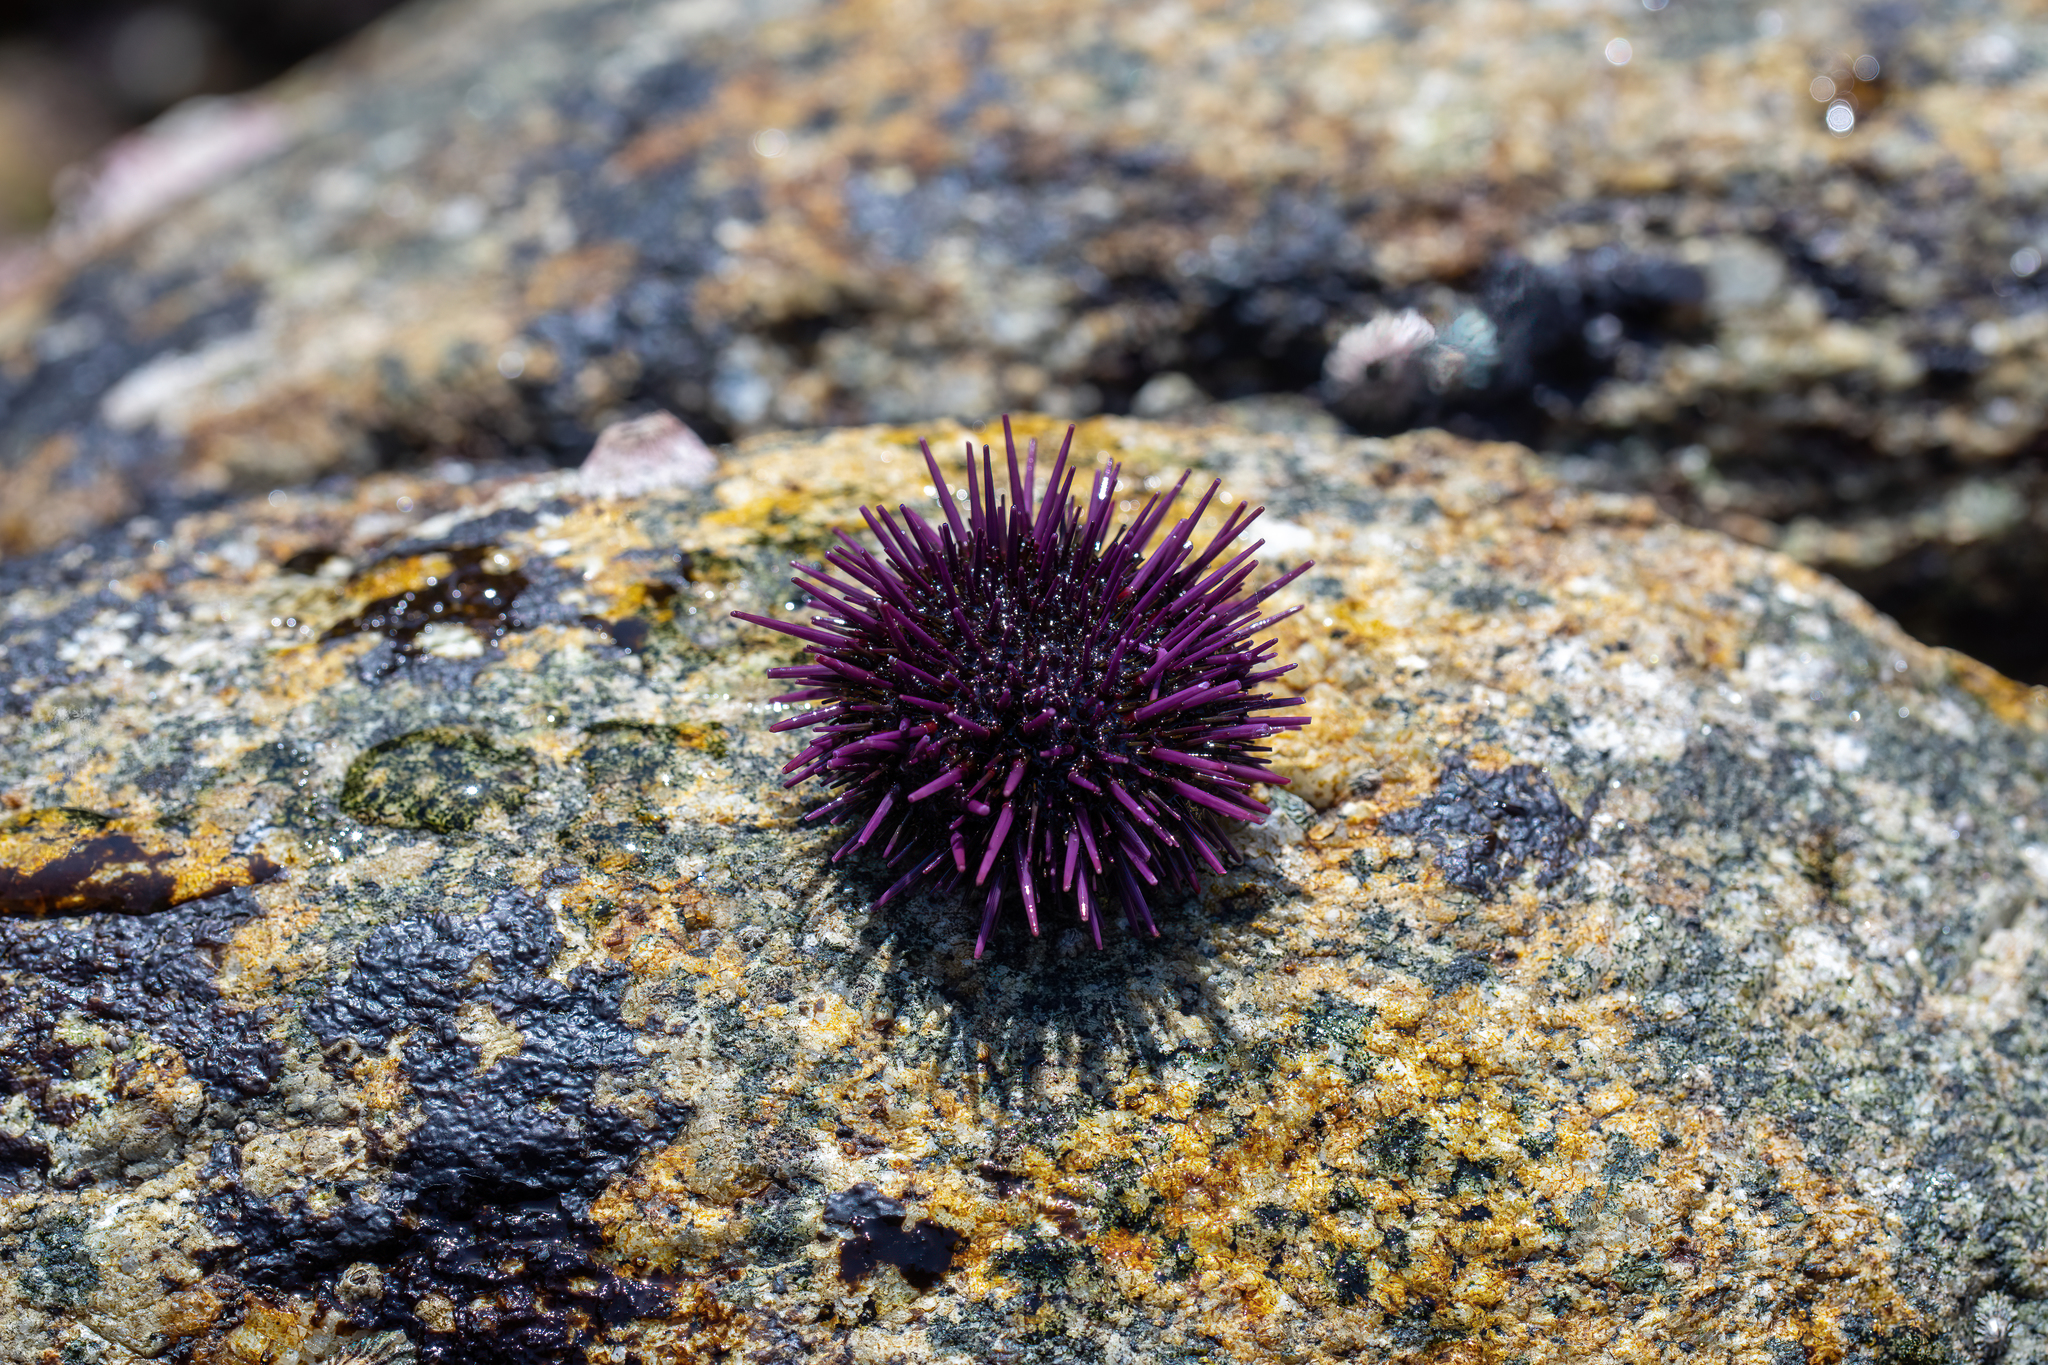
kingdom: Animalia
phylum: Echinodermata
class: Echinoidea
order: Camarodonta
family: Strongylocentrotidae
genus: Strongylocentrotus
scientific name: Strongylocentrotus purpuratus
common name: Purple sea urchin
